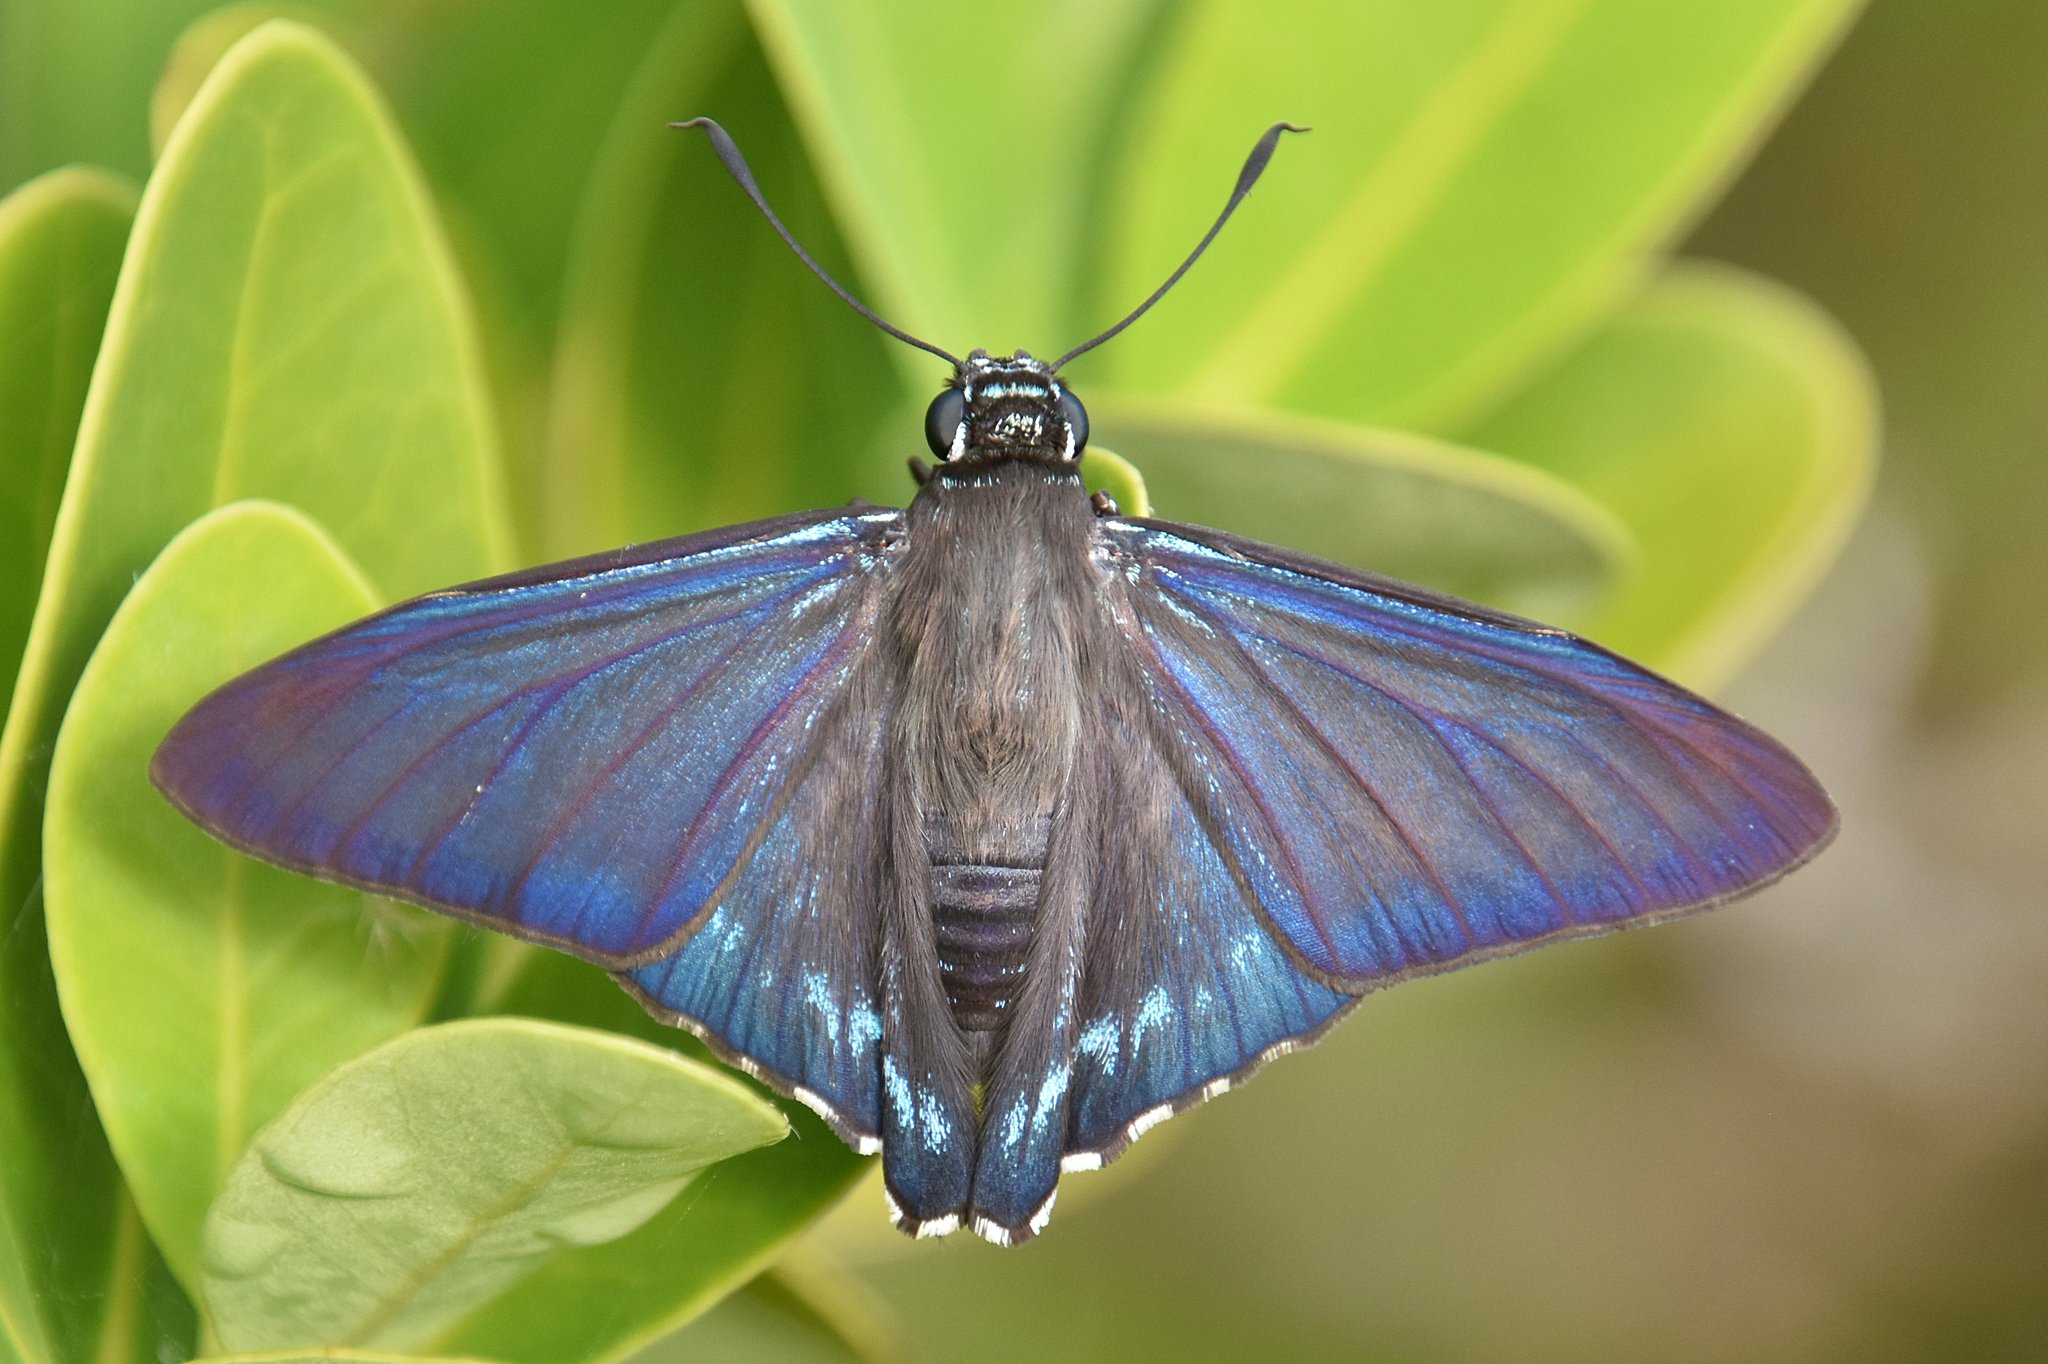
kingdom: Animalia
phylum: Arthropoda
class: Insecta
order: Lepidoptera
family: Hesperiidae
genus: Phocides
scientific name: Phocides pigmalion
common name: Mangrove skipper
